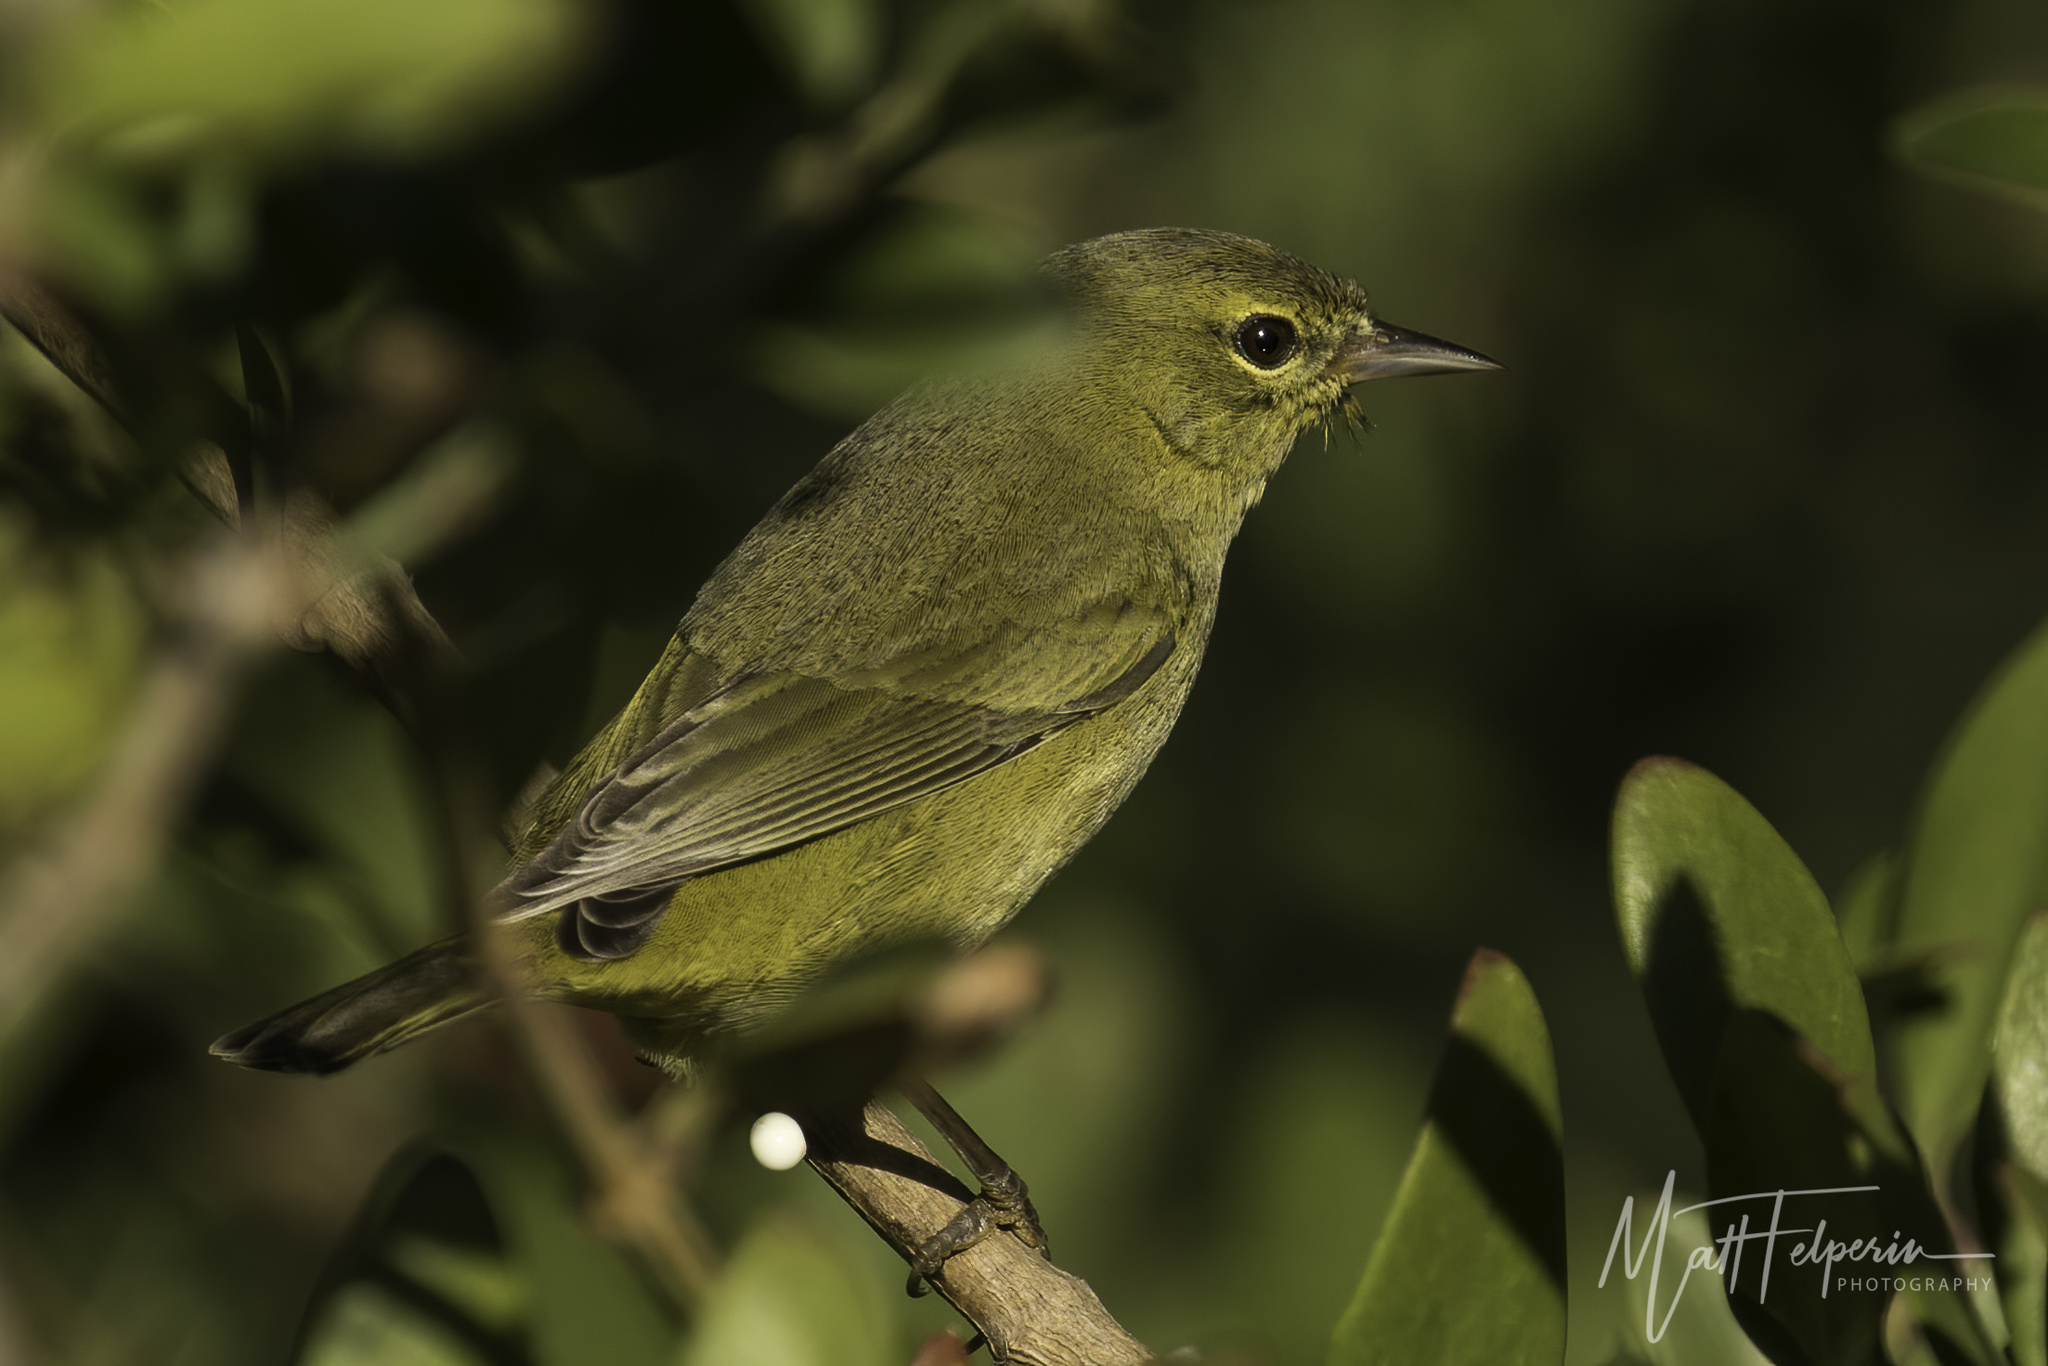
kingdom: Animalia
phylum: Chordata
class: Aves
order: Passeriformes
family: Parulidae
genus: Leiothlypis
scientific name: Leiothlypis celata
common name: Orange-crowned warbler
